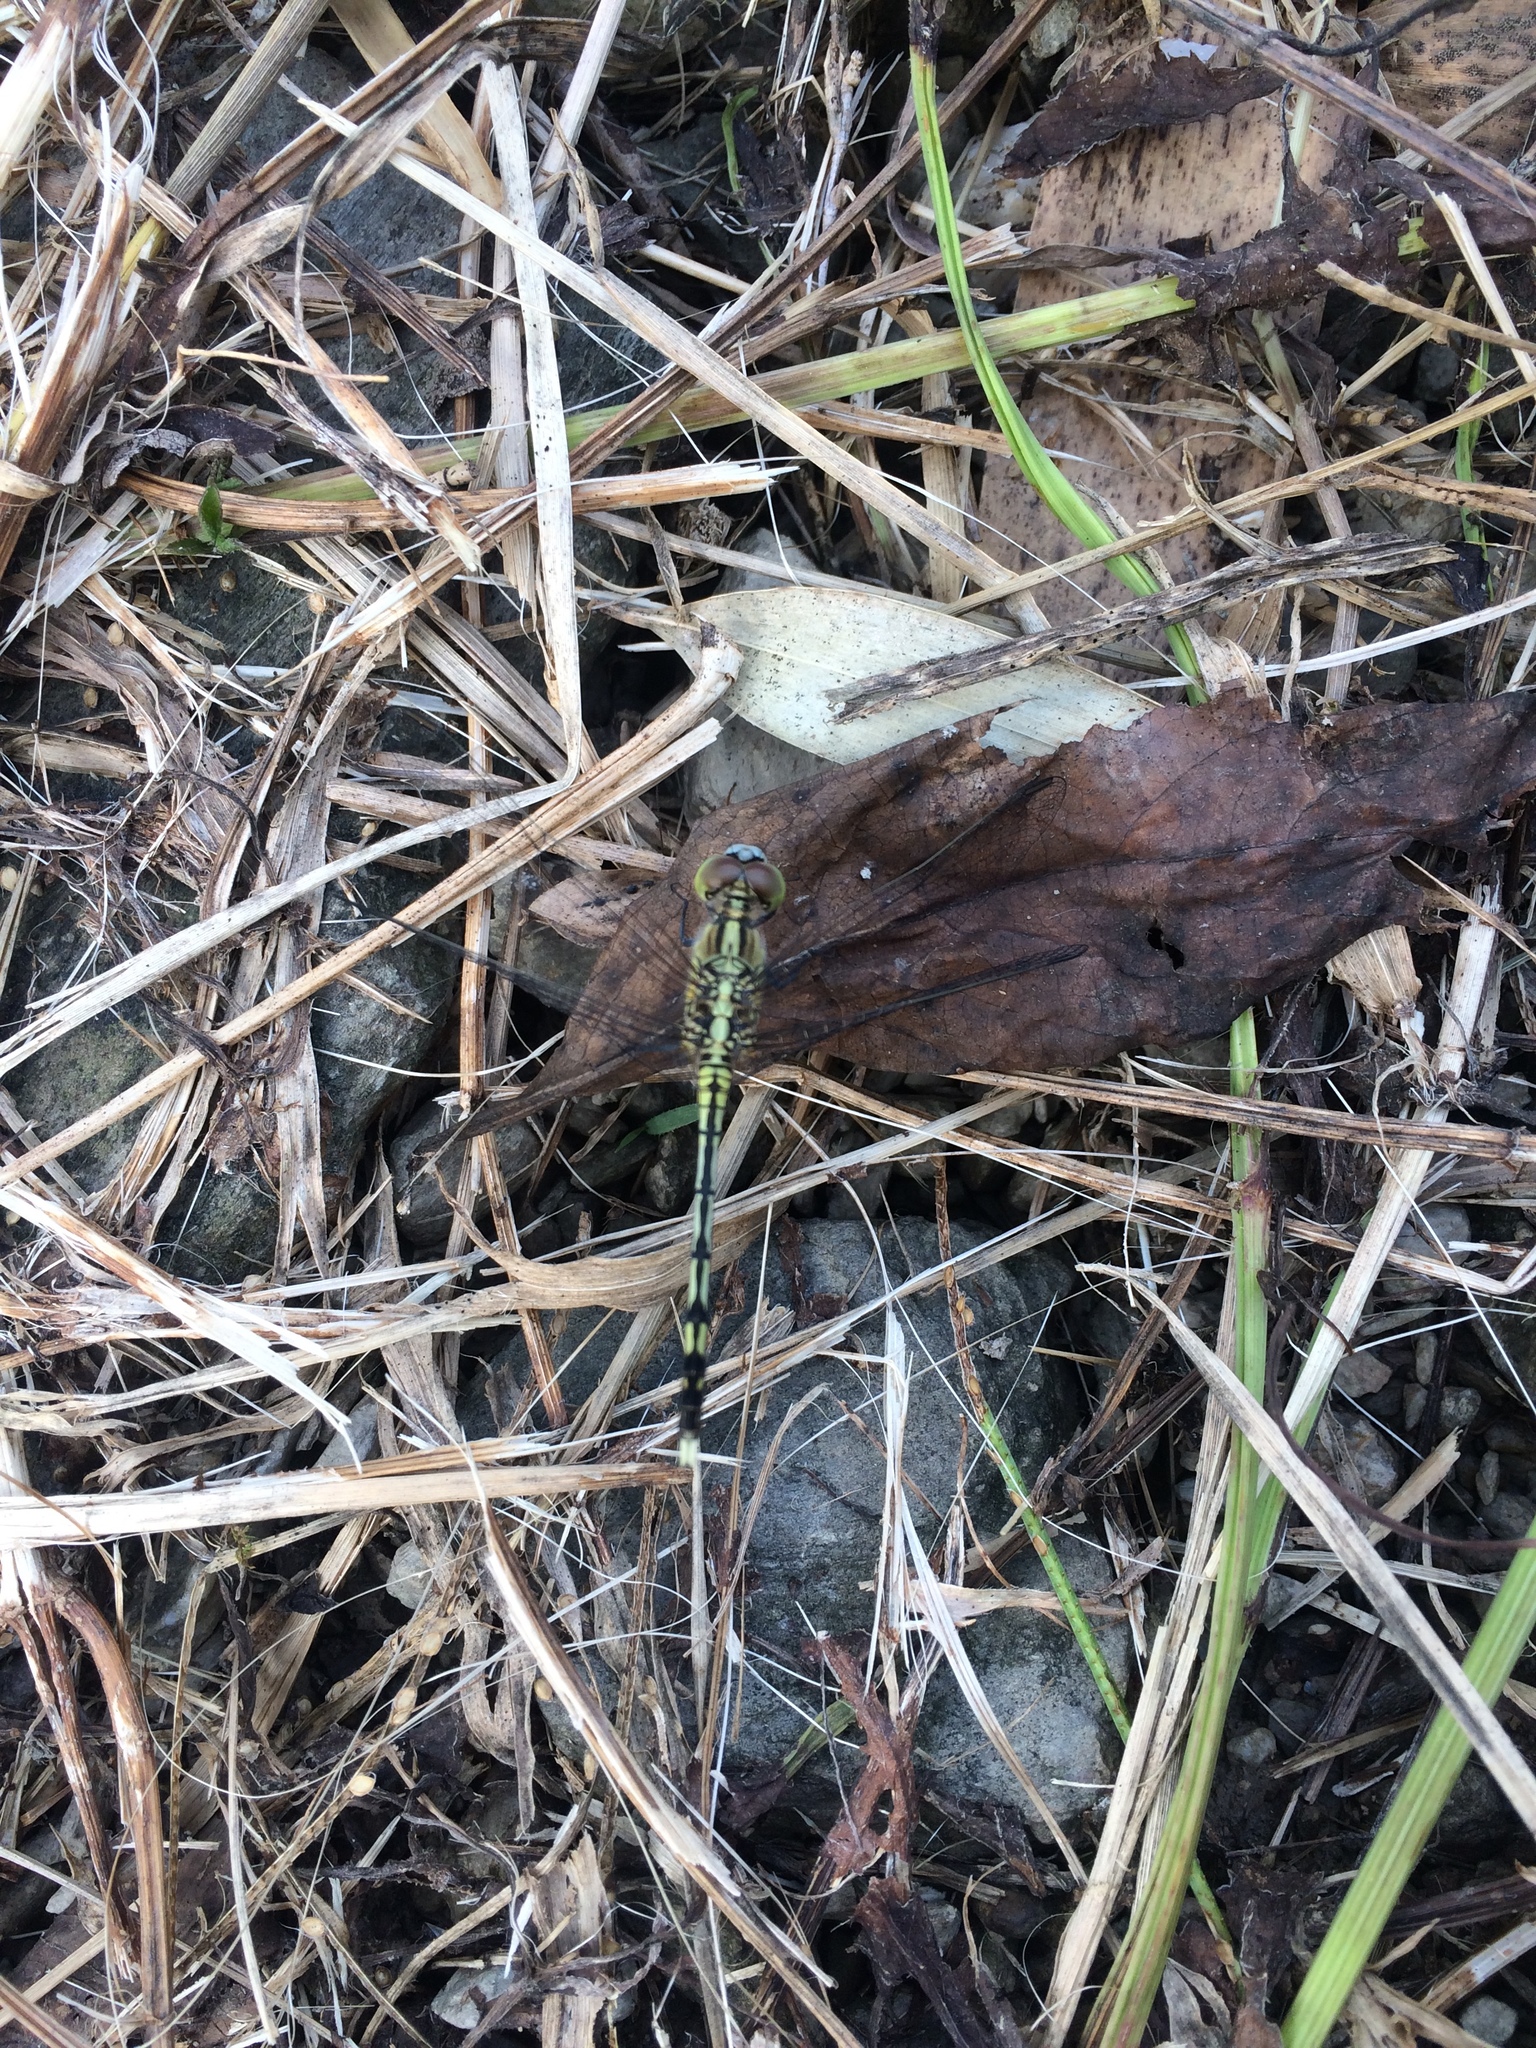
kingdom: Animalia
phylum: Arthropoda
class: Insecta
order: Odonata
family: Libellulidae
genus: Diplacodes
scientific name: Diplacodes trivialis
